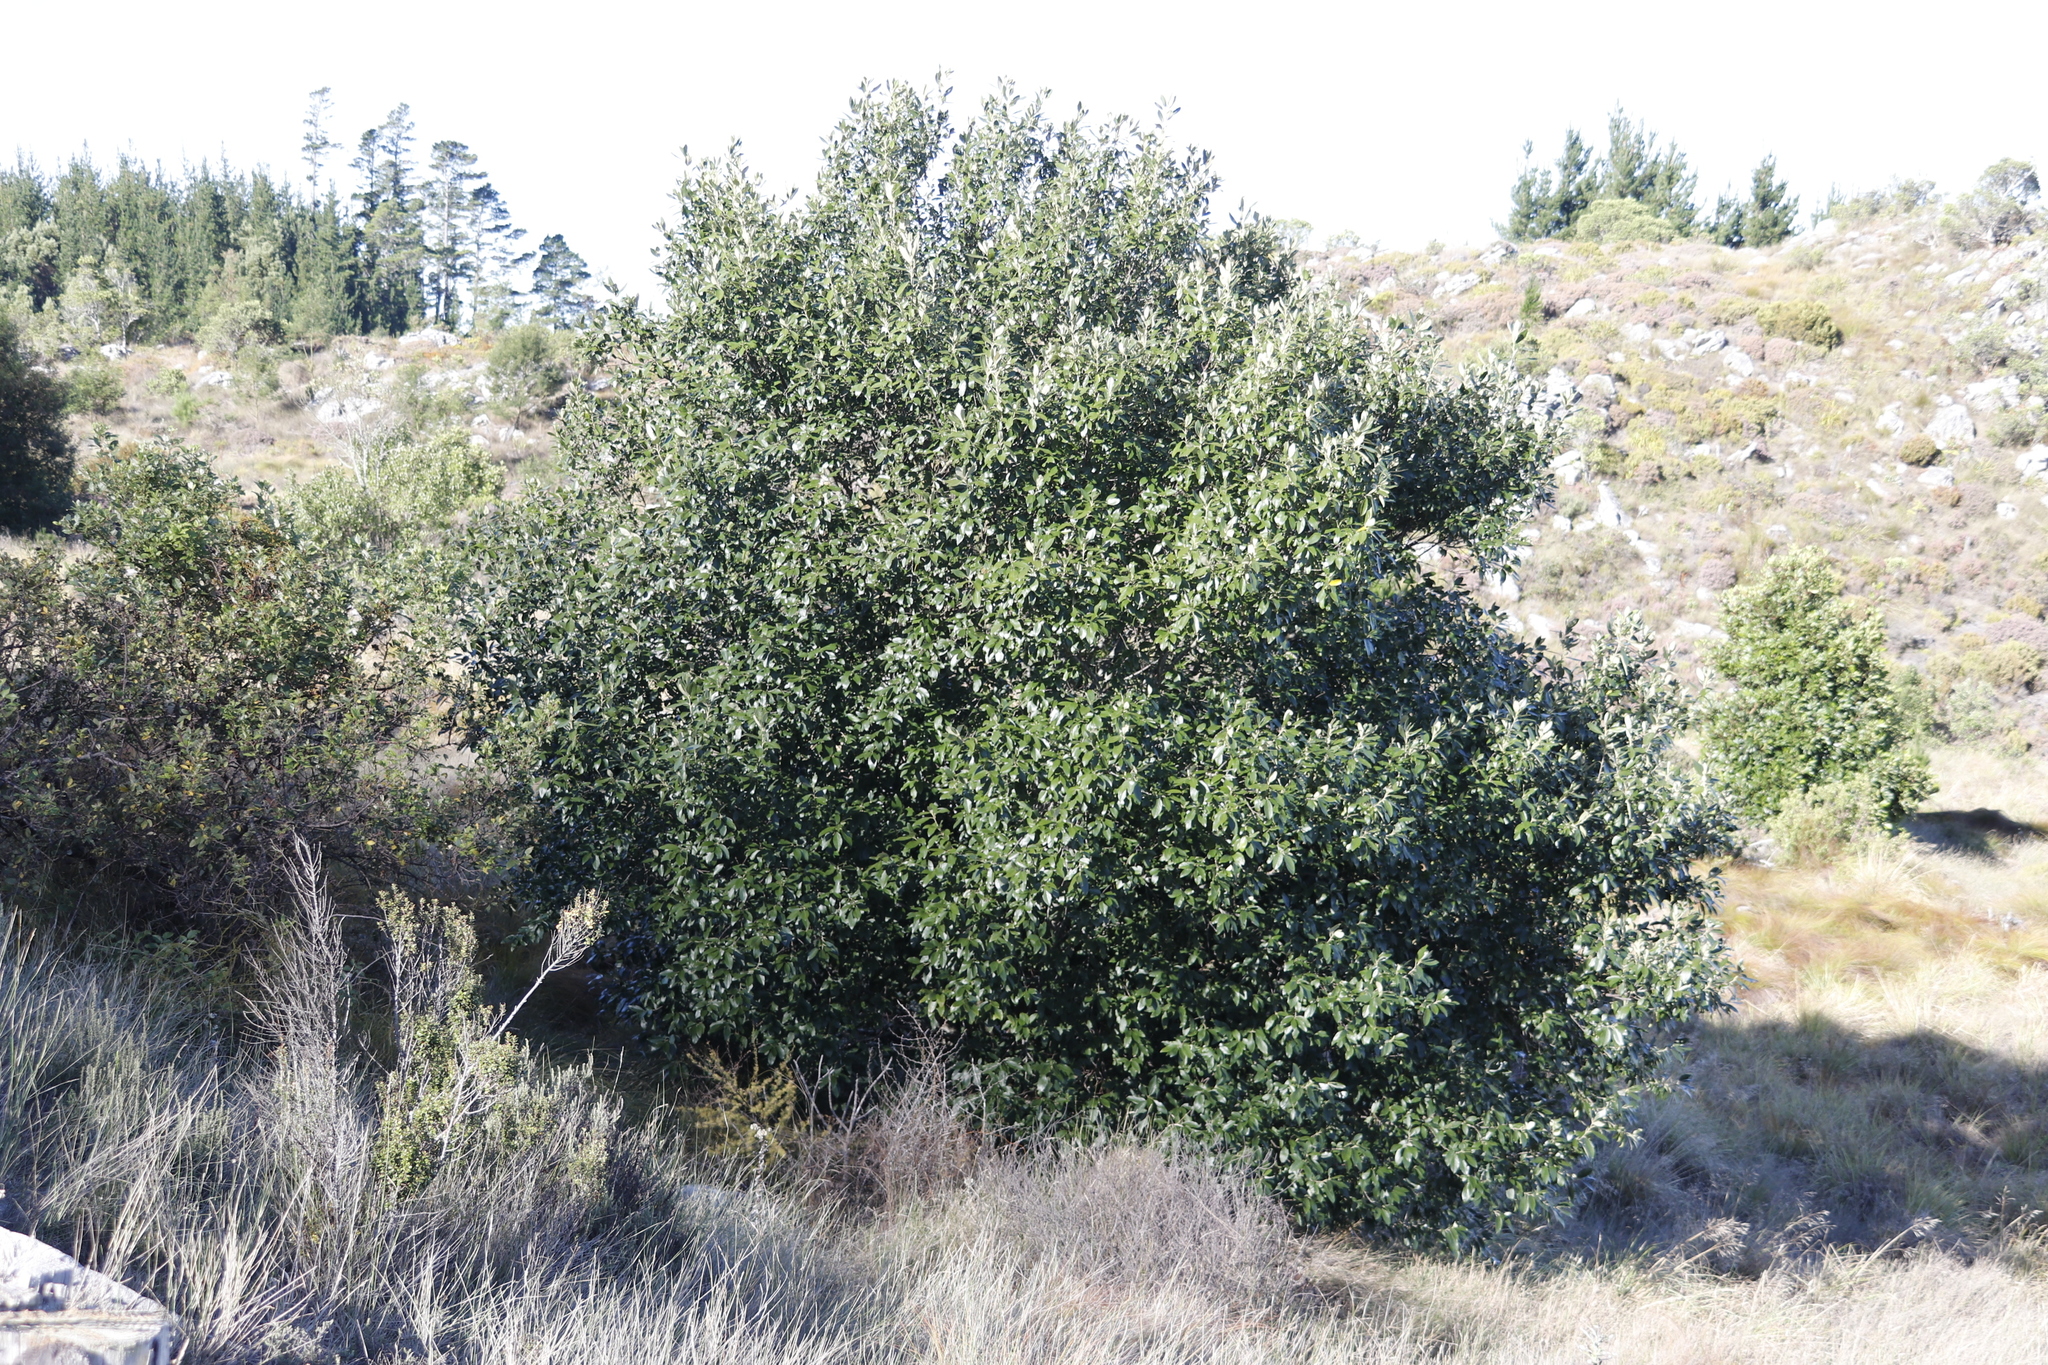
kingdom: Plantae
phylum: Tracheophyta
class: Magnoliopsida
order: Malpighiales
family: Achariaceae
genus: Kiggelaria
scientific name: Kiggelaria africana
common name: Wild peach
